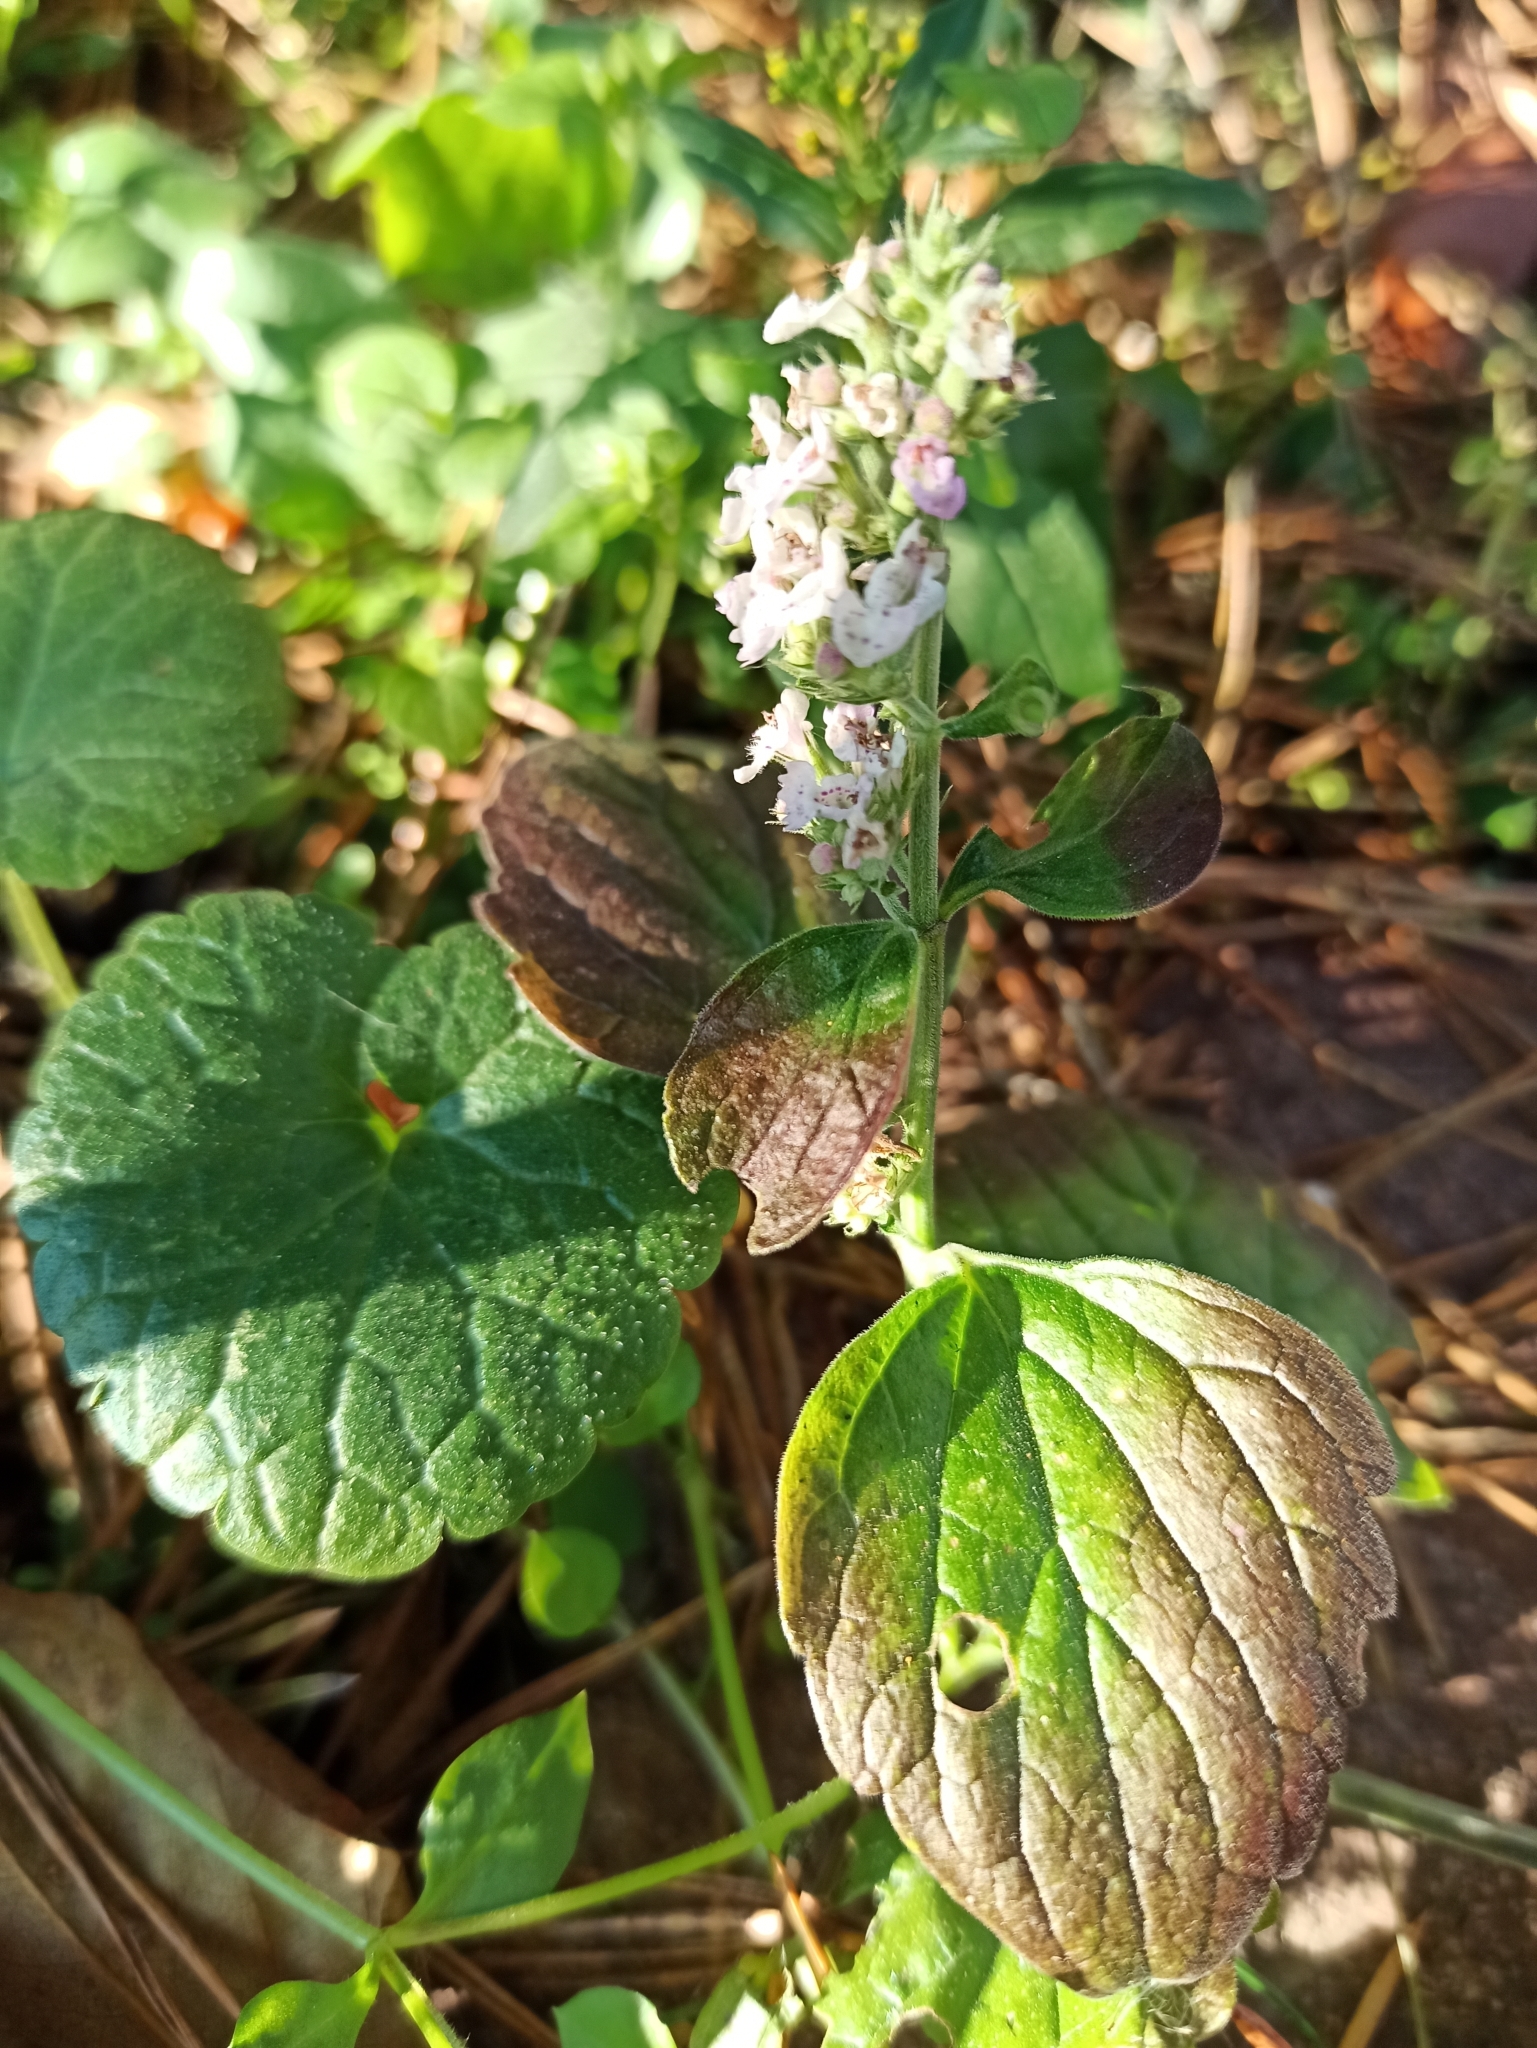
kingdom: Plantae
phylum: Tracheophyta
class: Magnoliopsida
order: Lamiales
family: Lamiaceae
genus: Nepeta
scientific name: Nepeta cataria
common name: Catnip
